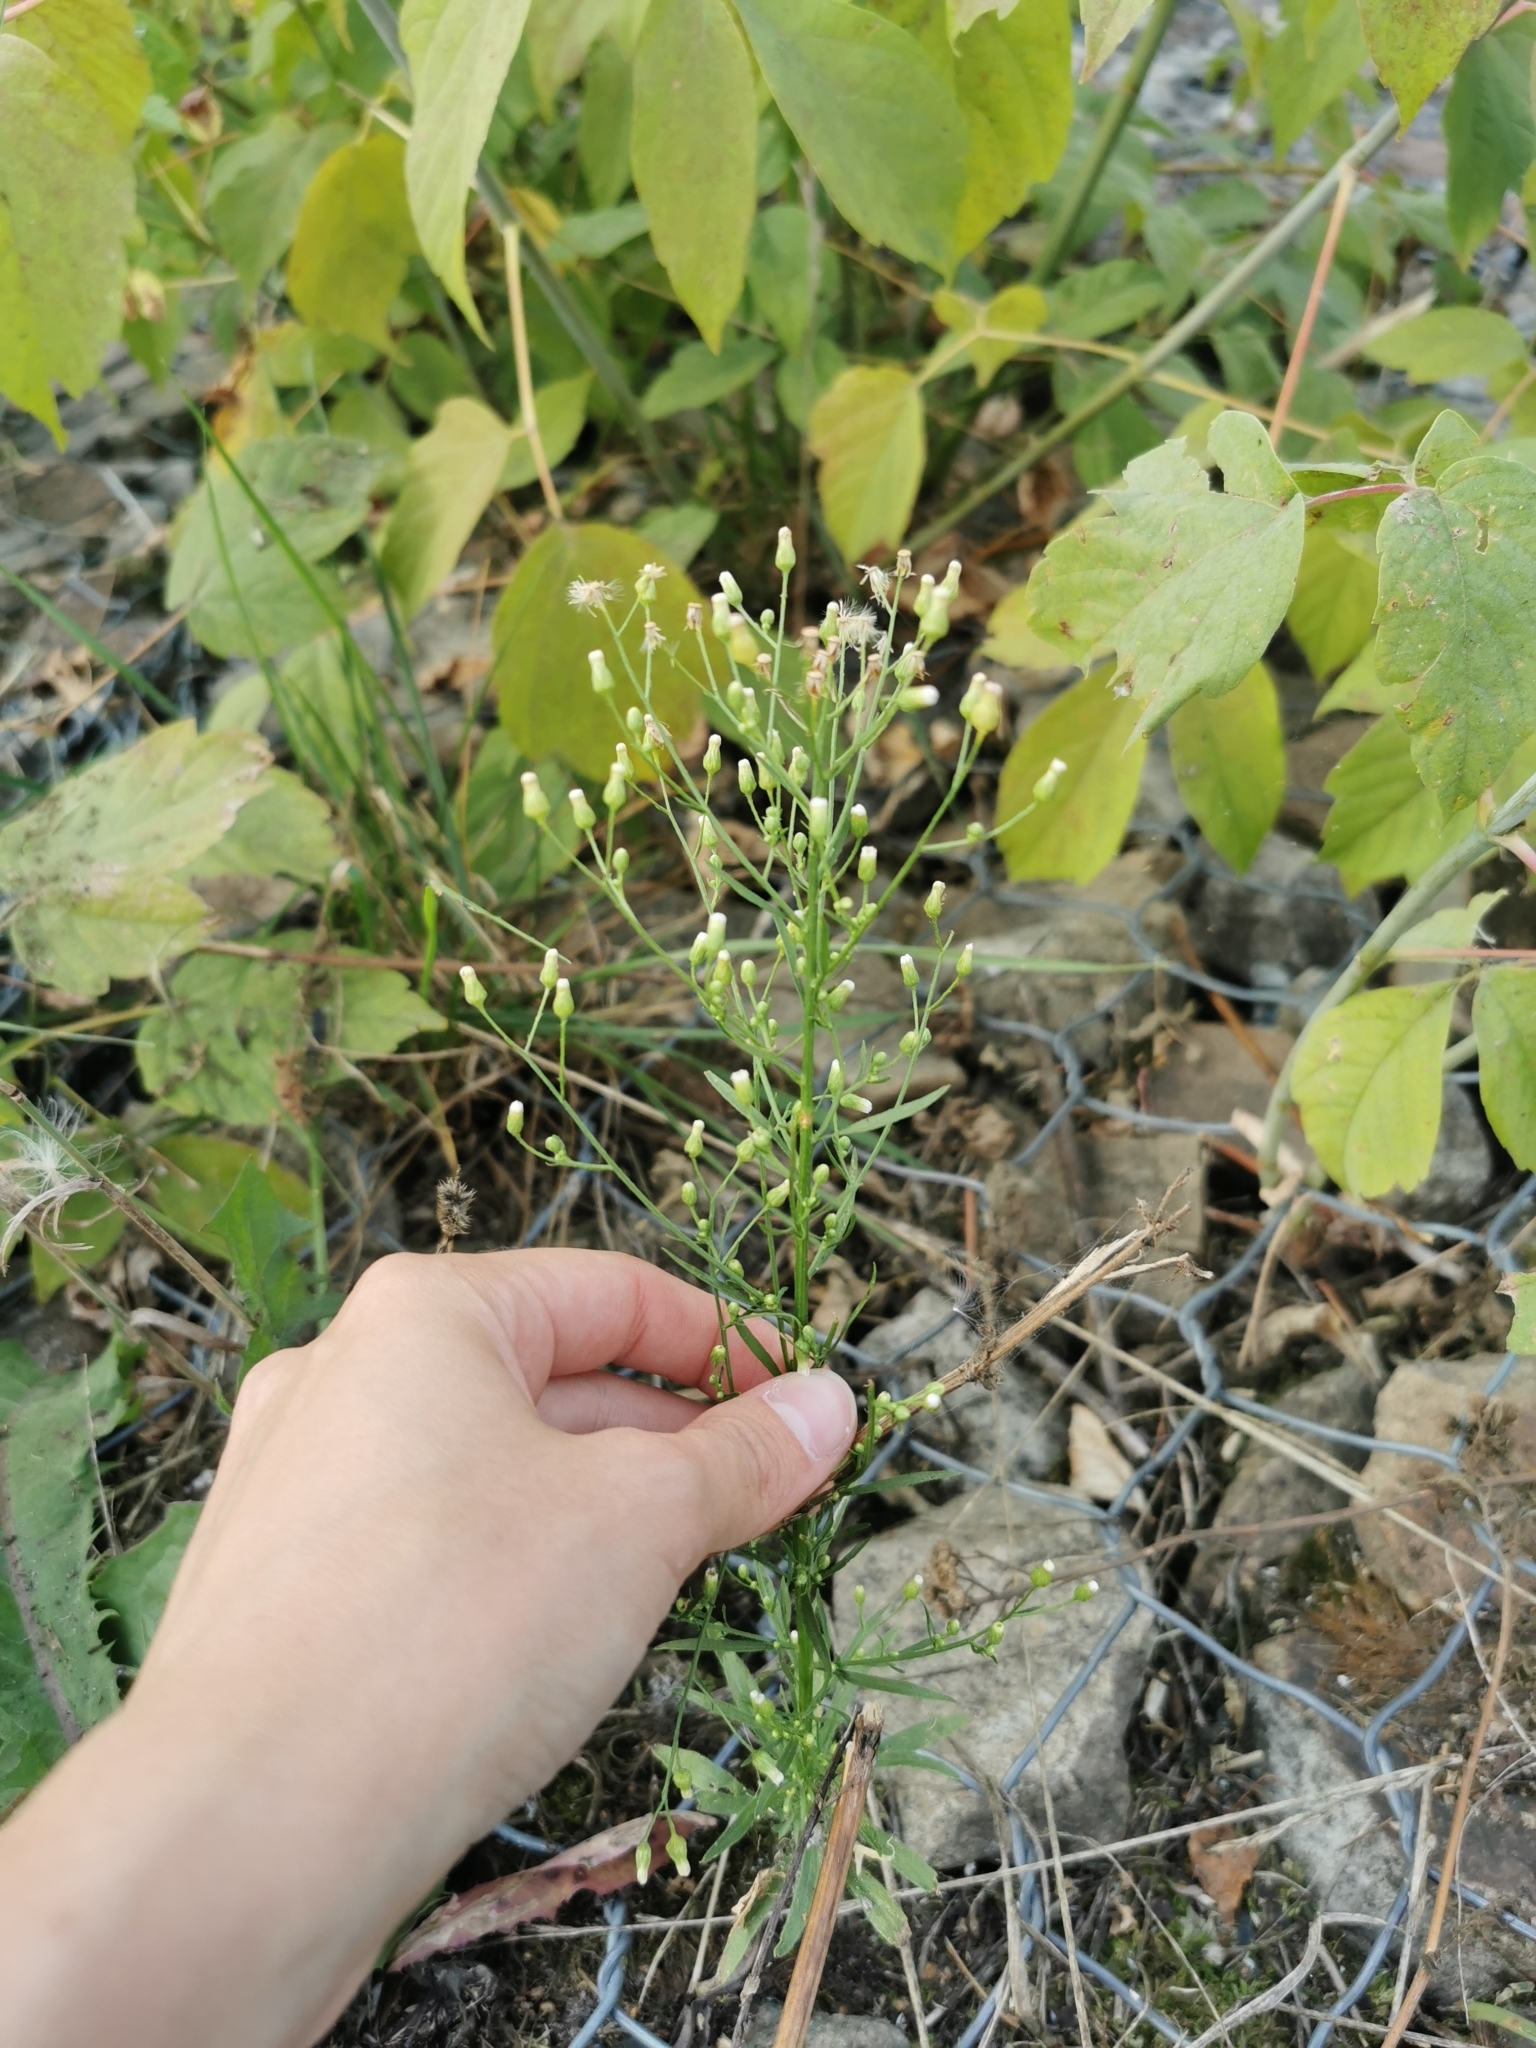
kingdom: Plantae
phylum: Tracheophyta
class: Magnoliopsida
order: Asterales
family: Asteraceae
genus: Erigeron
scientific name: Erigeron canadensis
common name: Canadian fleabane
